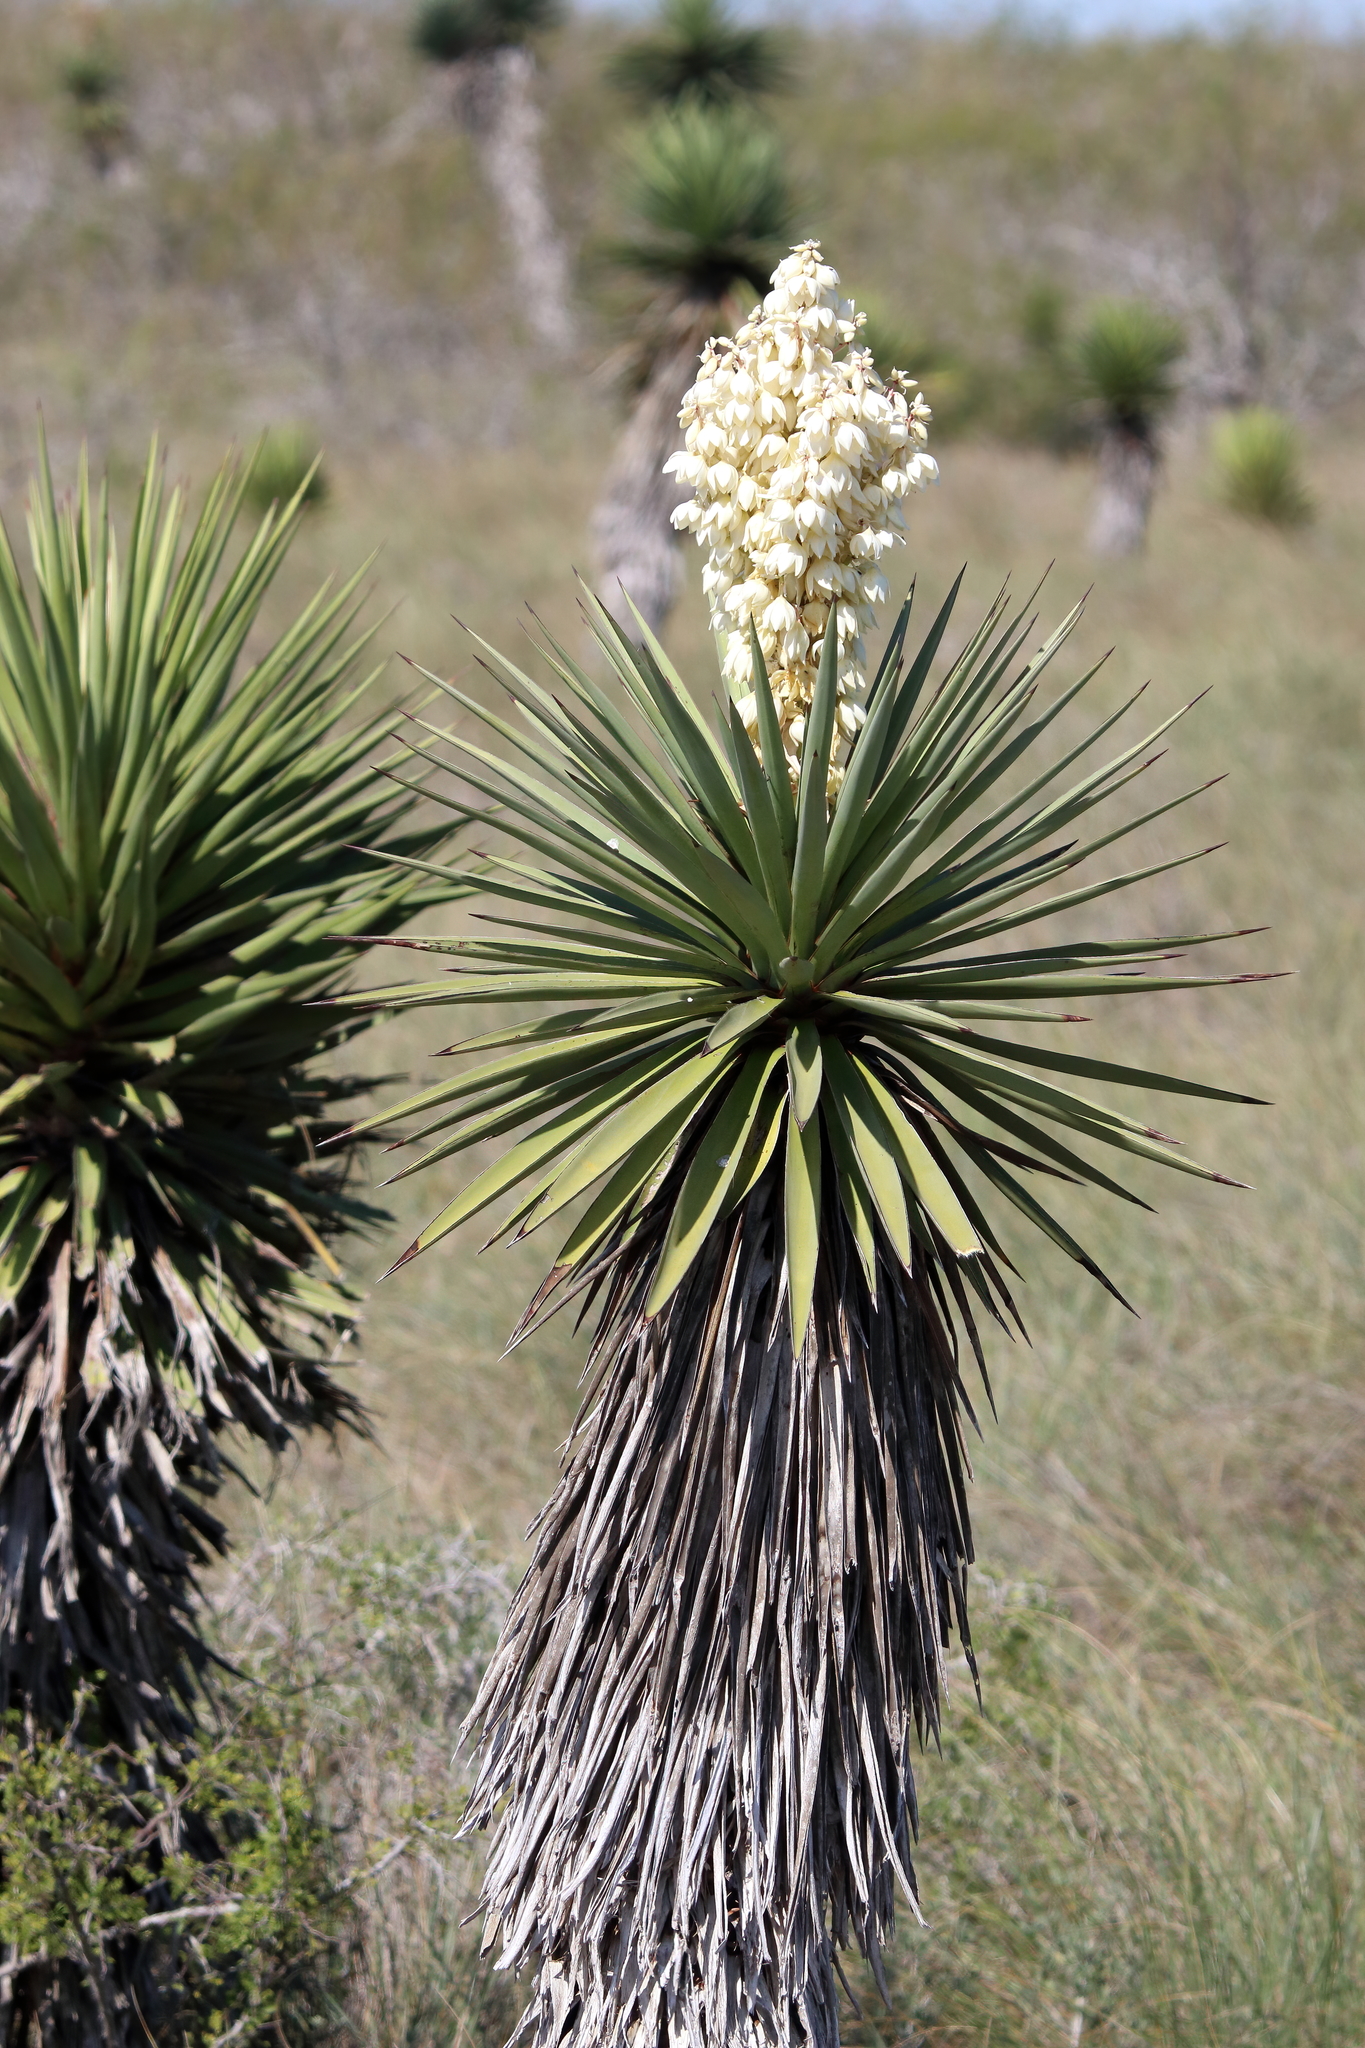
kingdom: Plantae
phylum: Tracheophyta
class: Liliopsida
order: Asparagales
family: Asparagaceae
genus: Yucca
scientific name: Yucca treculiana
